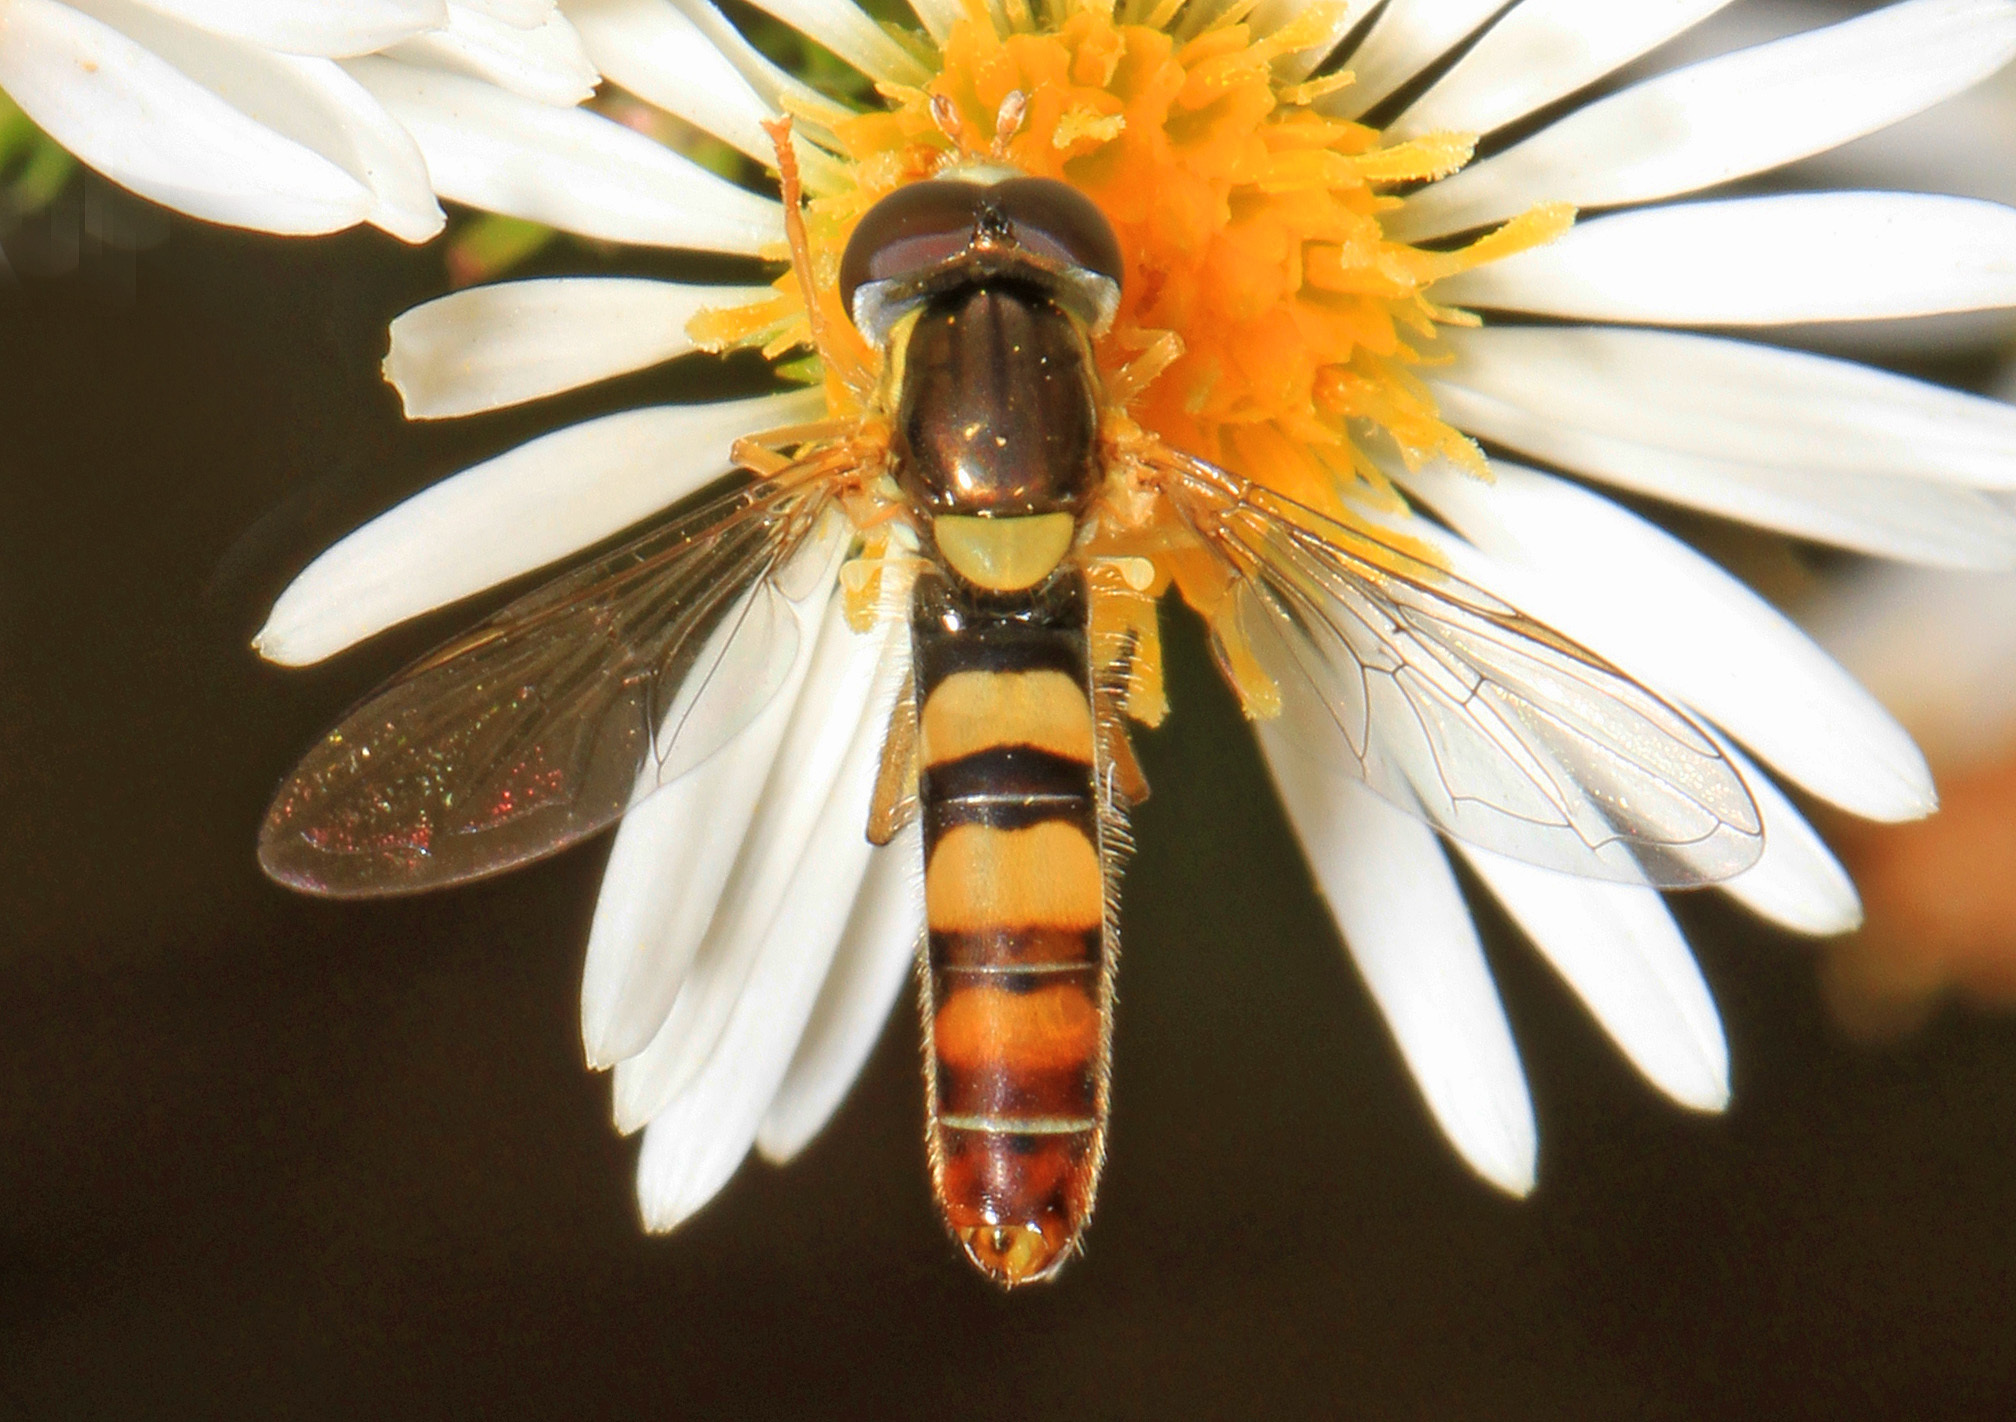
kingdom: Animalia
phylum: Arthropoda
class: Insecta
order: Diptera
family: Syrphidae
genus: Sphaerophoria
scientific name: Sphaerophoria contigua
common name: Tufted globetail
